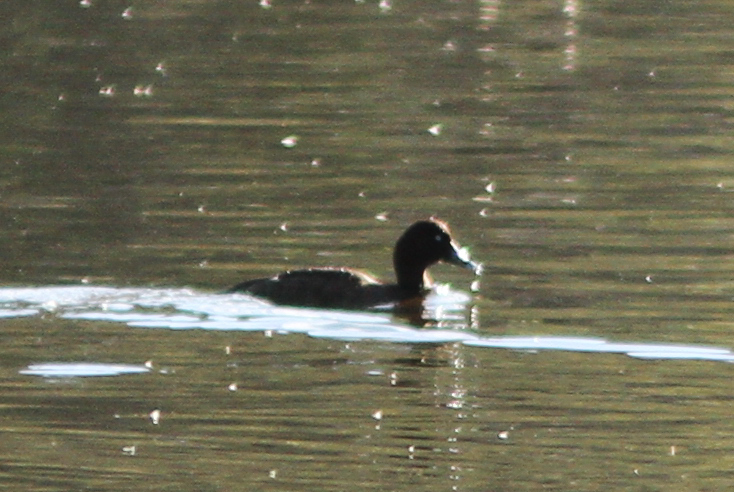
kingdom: Animalia
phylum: Chordata
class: Aves
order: Anseriformes
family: Anatidae
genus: Aythya
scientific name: Aythya australis
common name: Hardhead
